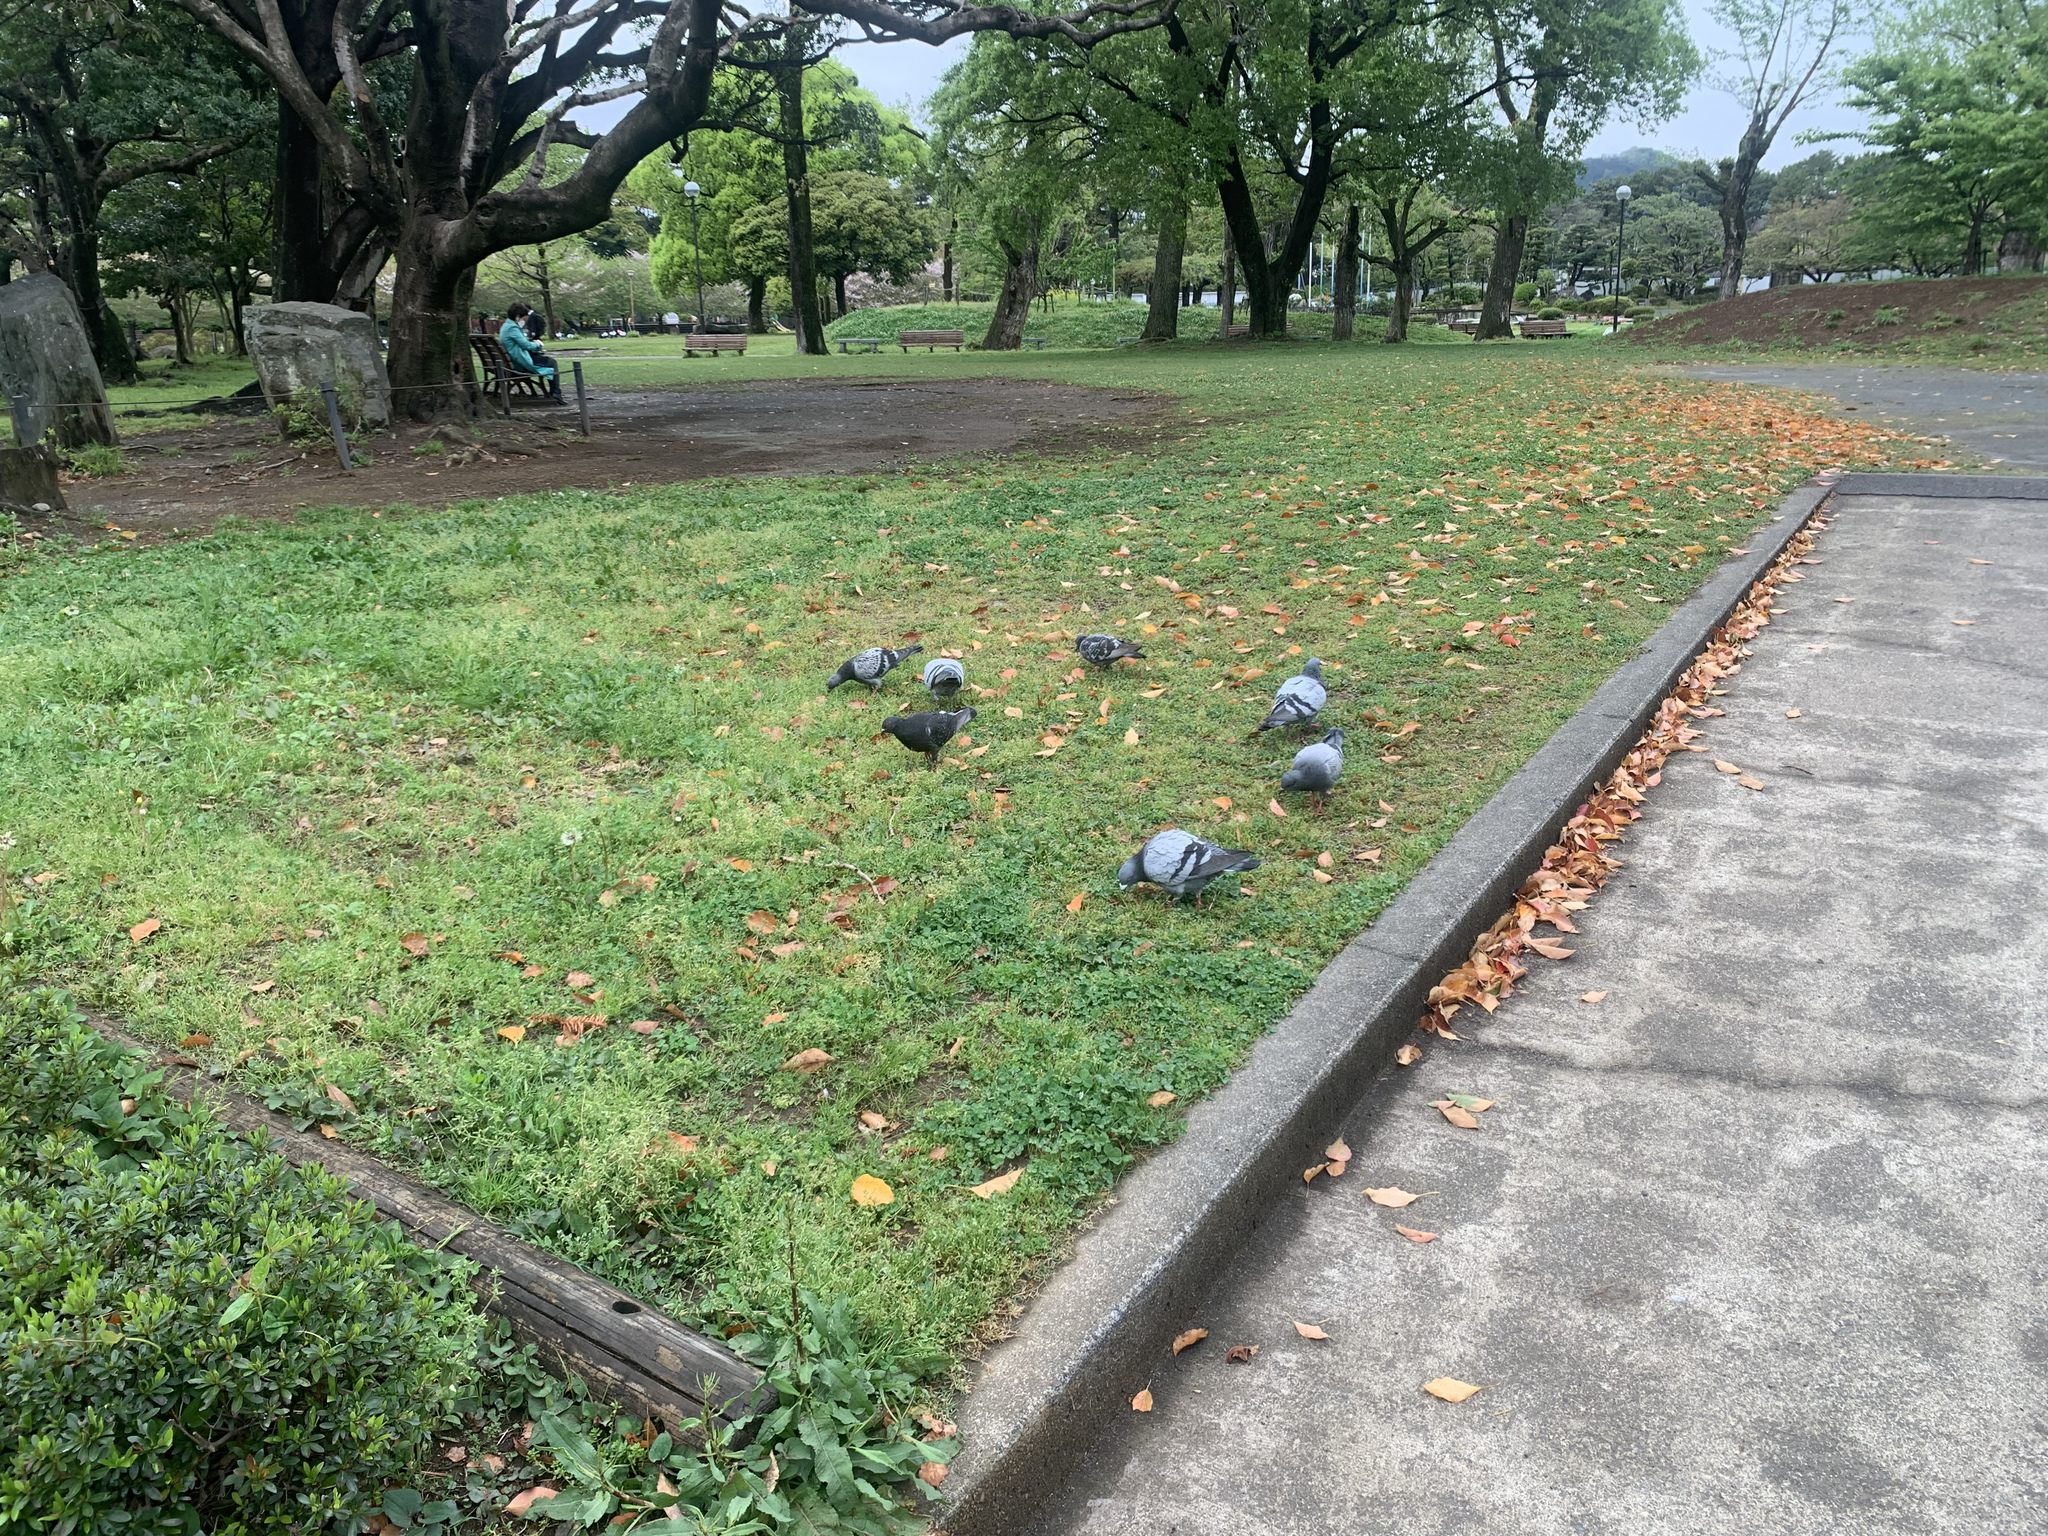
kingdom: Animalia
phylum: Chordata
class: Aves
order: Columbiformes
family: Columbidae
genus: Columba
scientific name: Columba livia
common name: Rock pigeon
